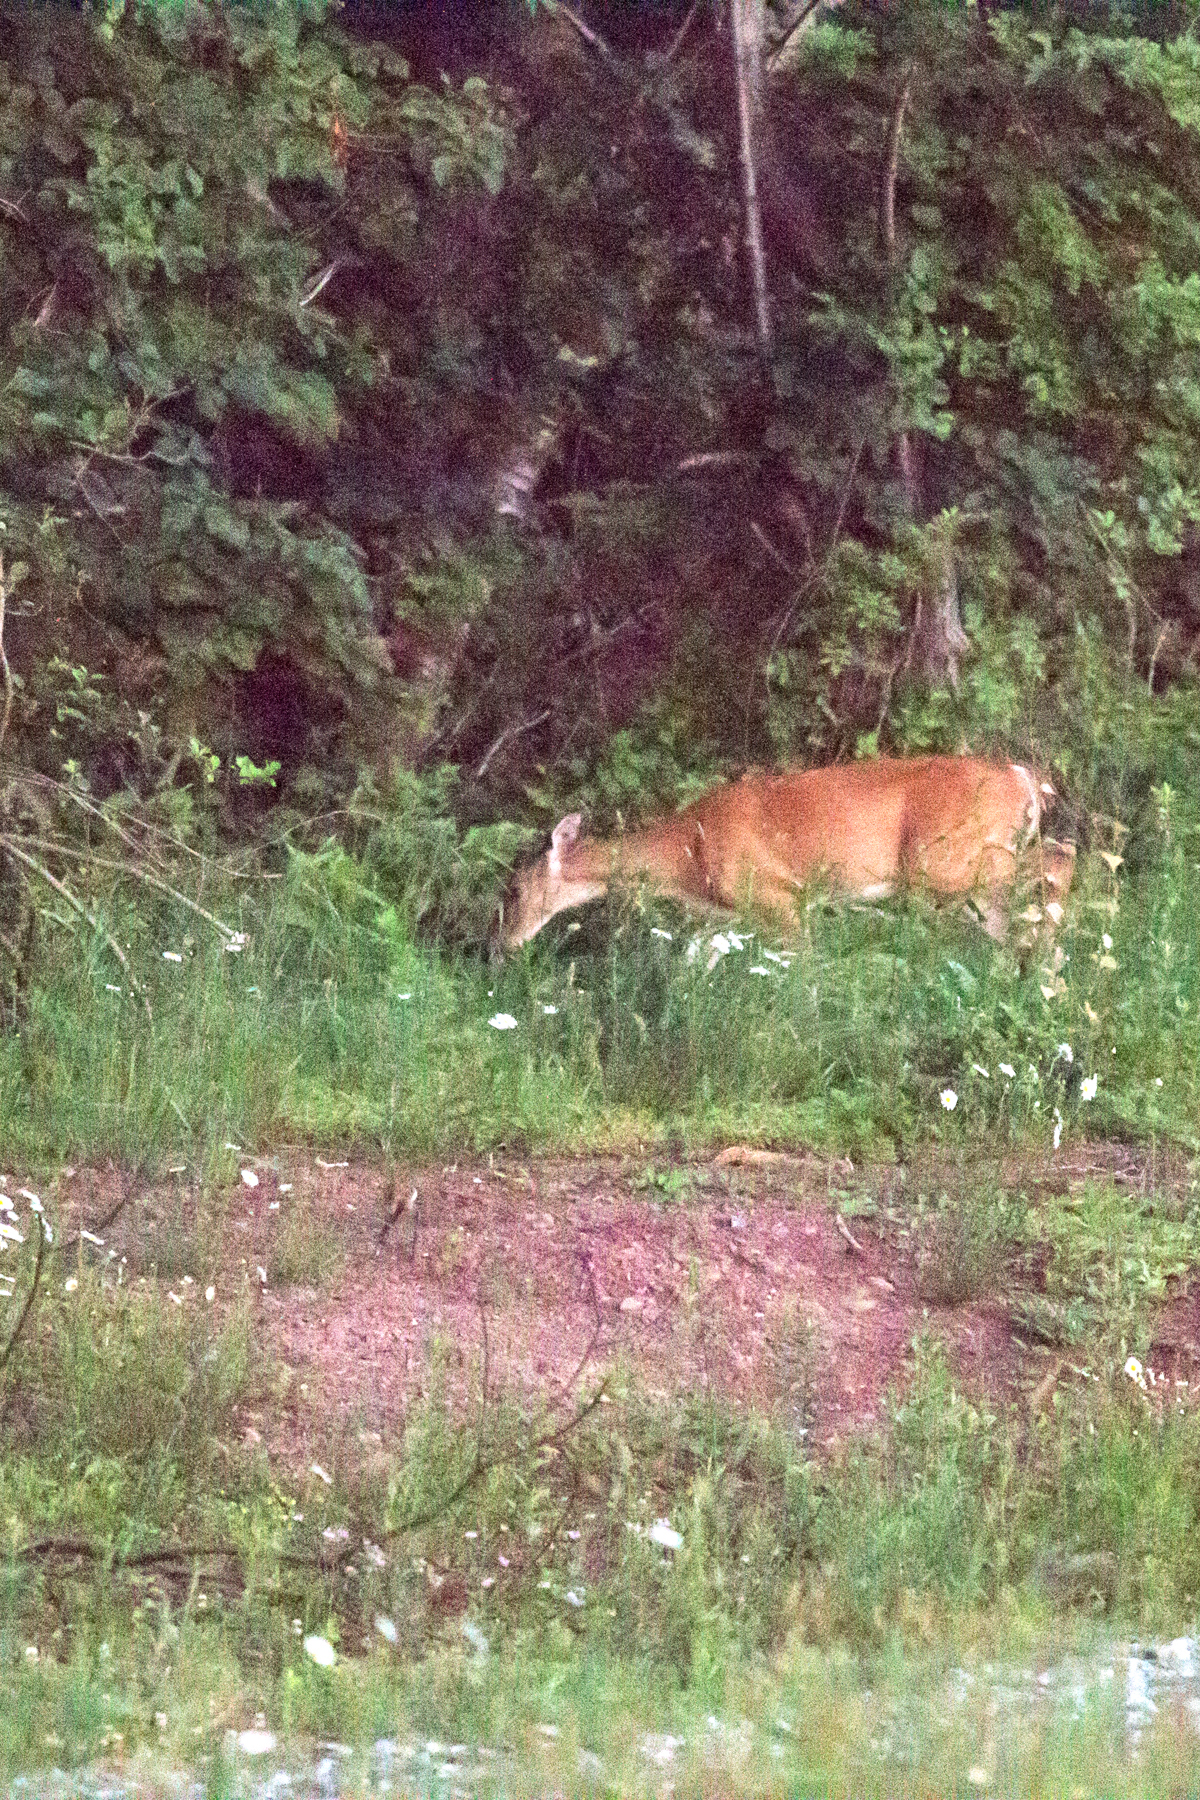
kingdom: Animalia
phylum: Chordata
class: Mammalia
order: Artiodactyla
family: Cervidae
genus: Odocoileus
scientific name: Odocoileus virginianus
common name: White-tailed deer
